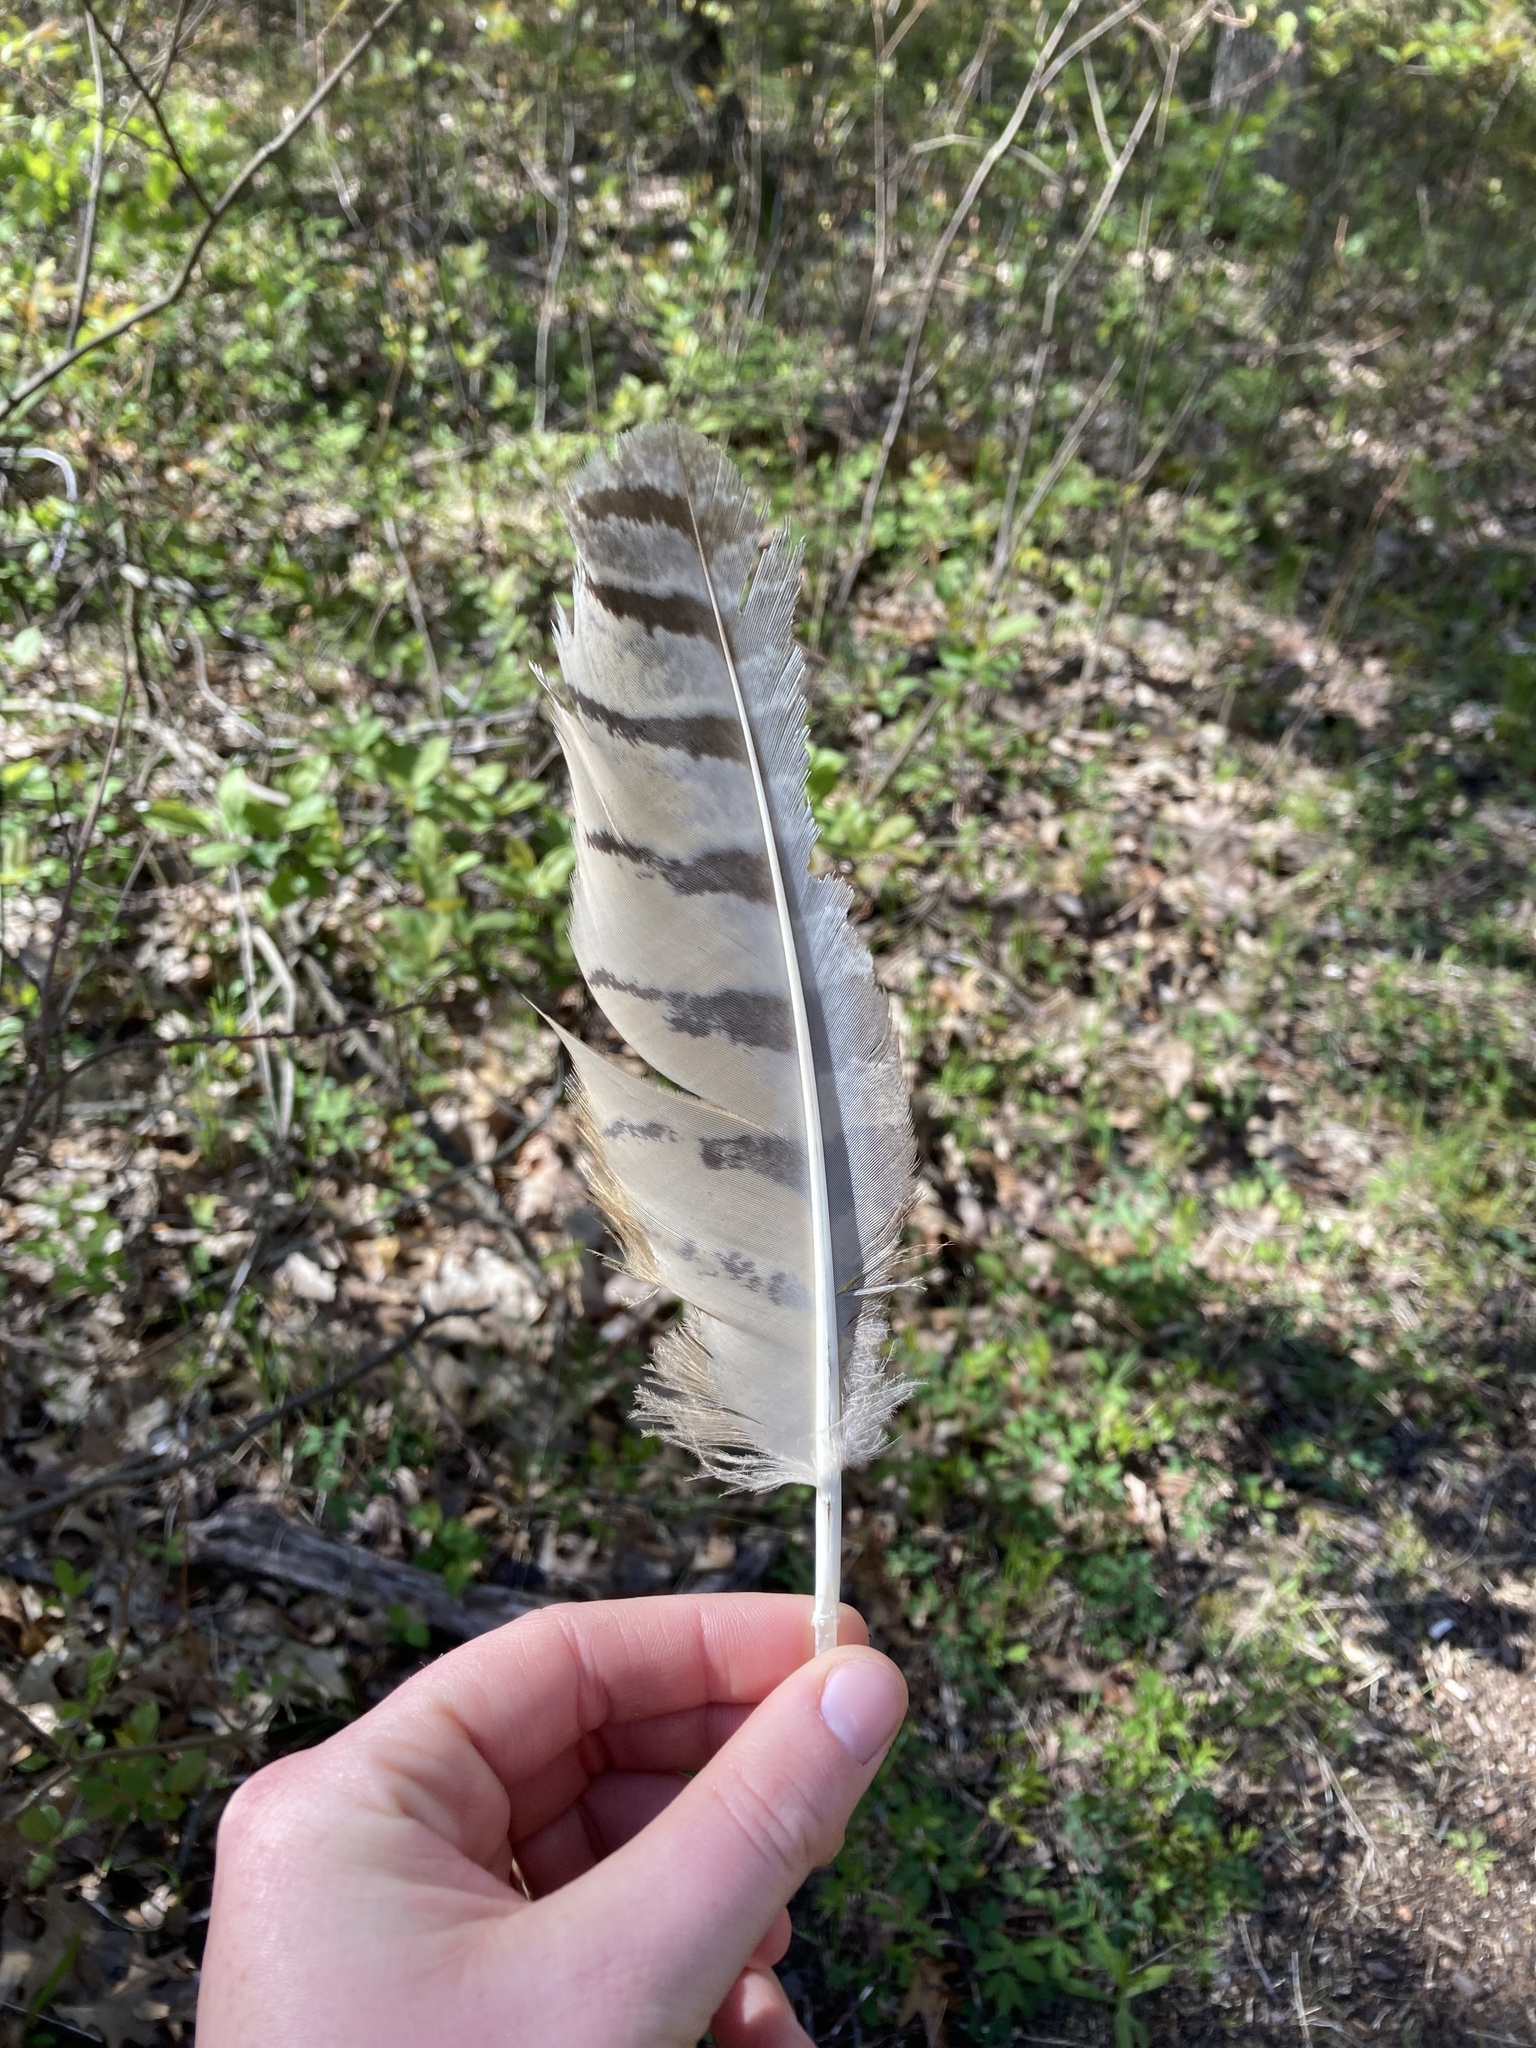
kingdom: Animalia
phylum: Chordata
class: Aves
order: Strigiformes
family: Strigidae
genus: Bubo
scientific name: Bubo virginianus
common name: Great horned owl
